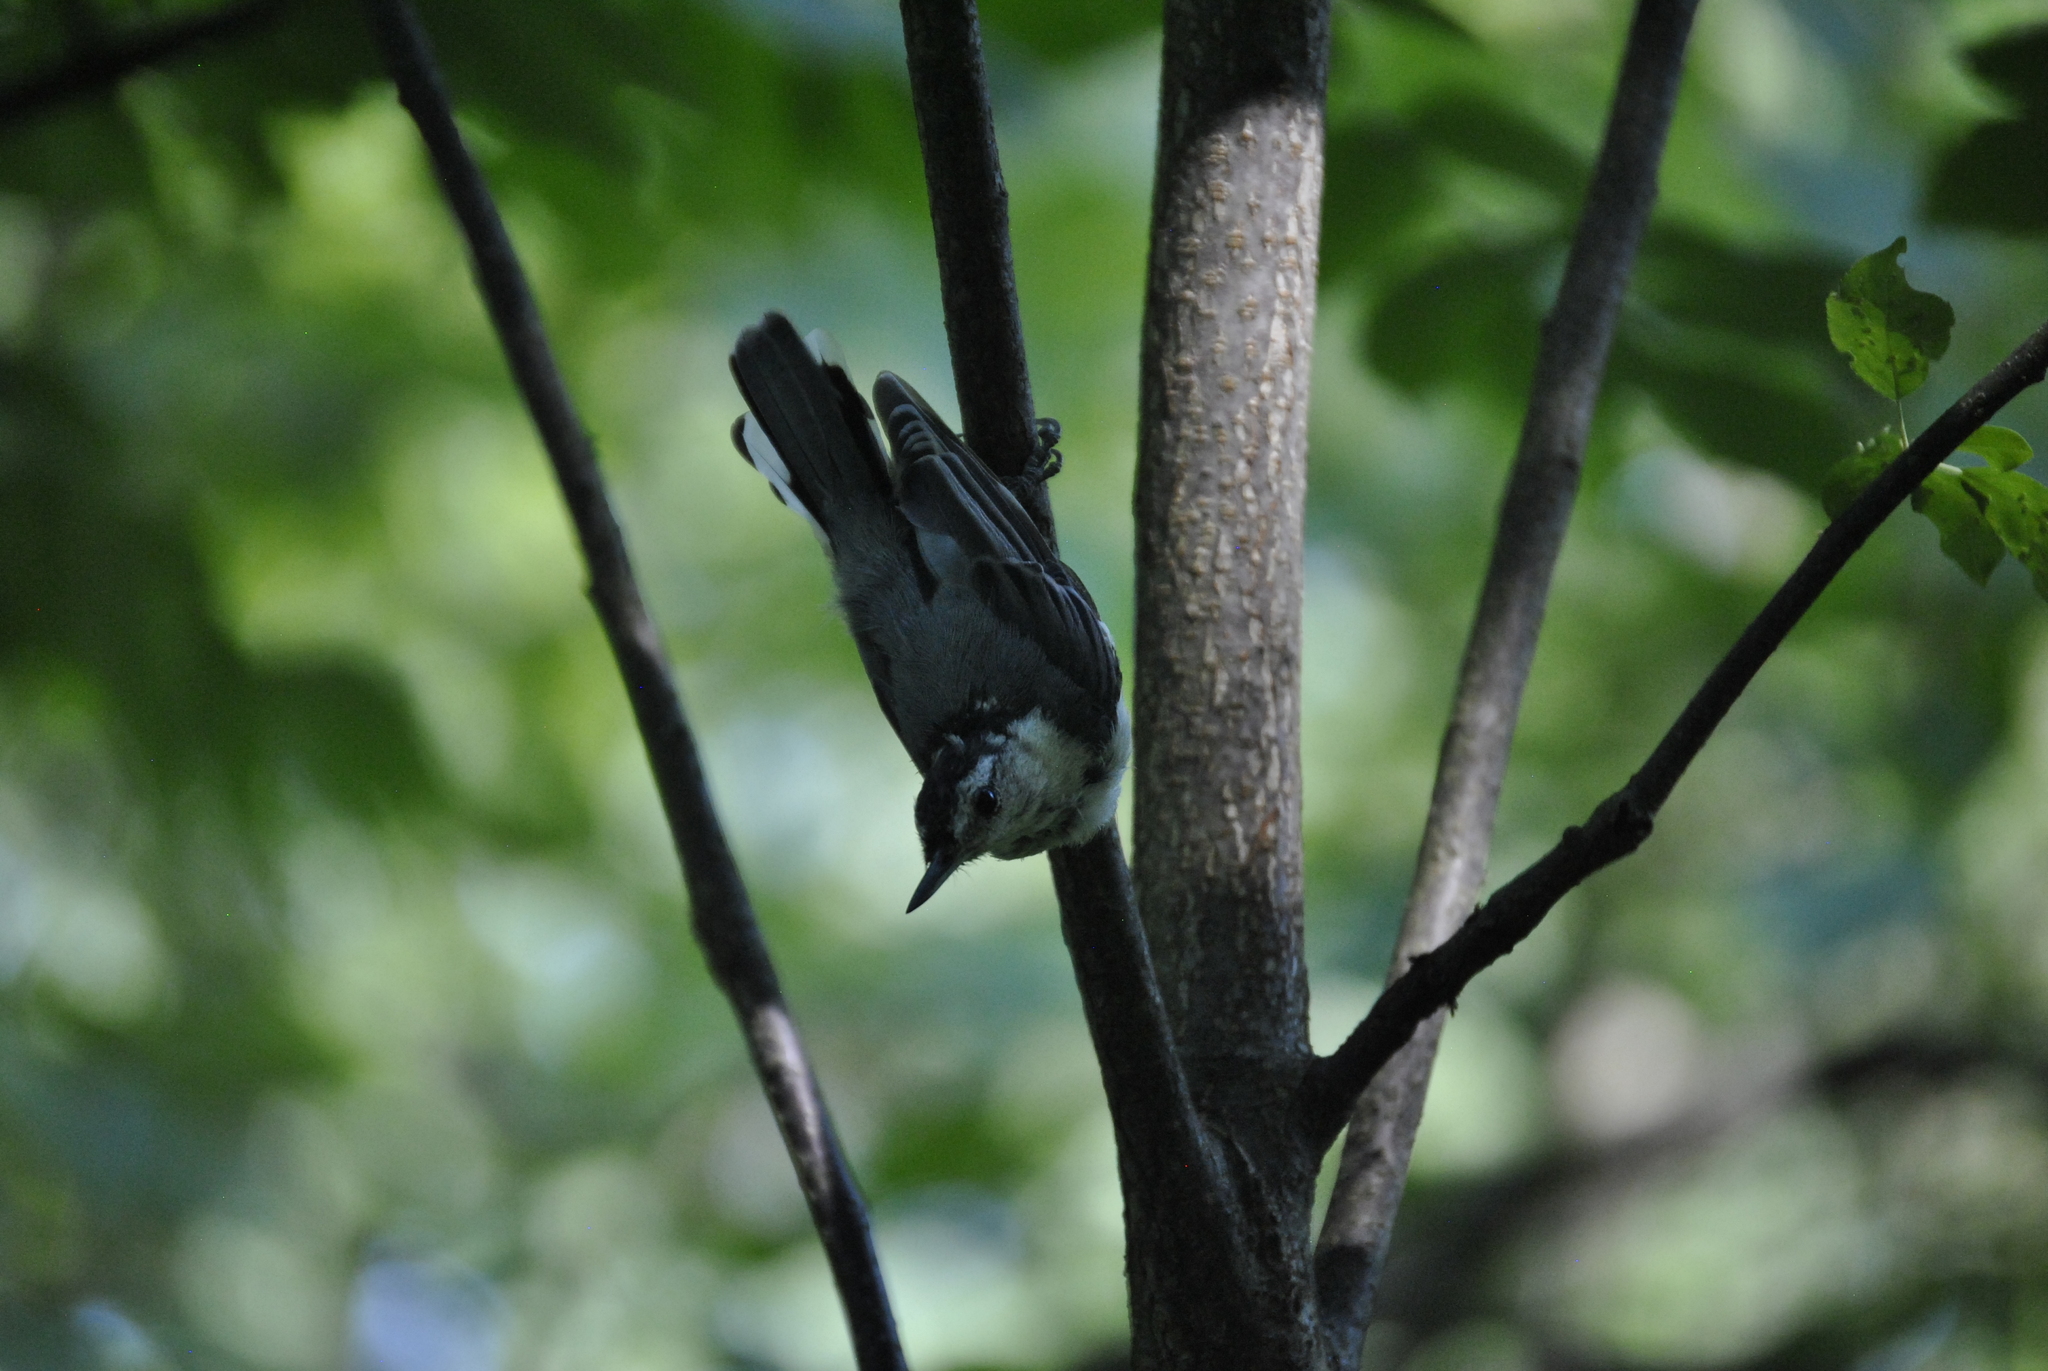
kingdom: Animalia
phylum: Chordata
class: Aves
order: Passeriformes
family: Sittidae
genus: Sitta
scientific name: Sitta carolinensis
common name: White-breasted nuthatch
